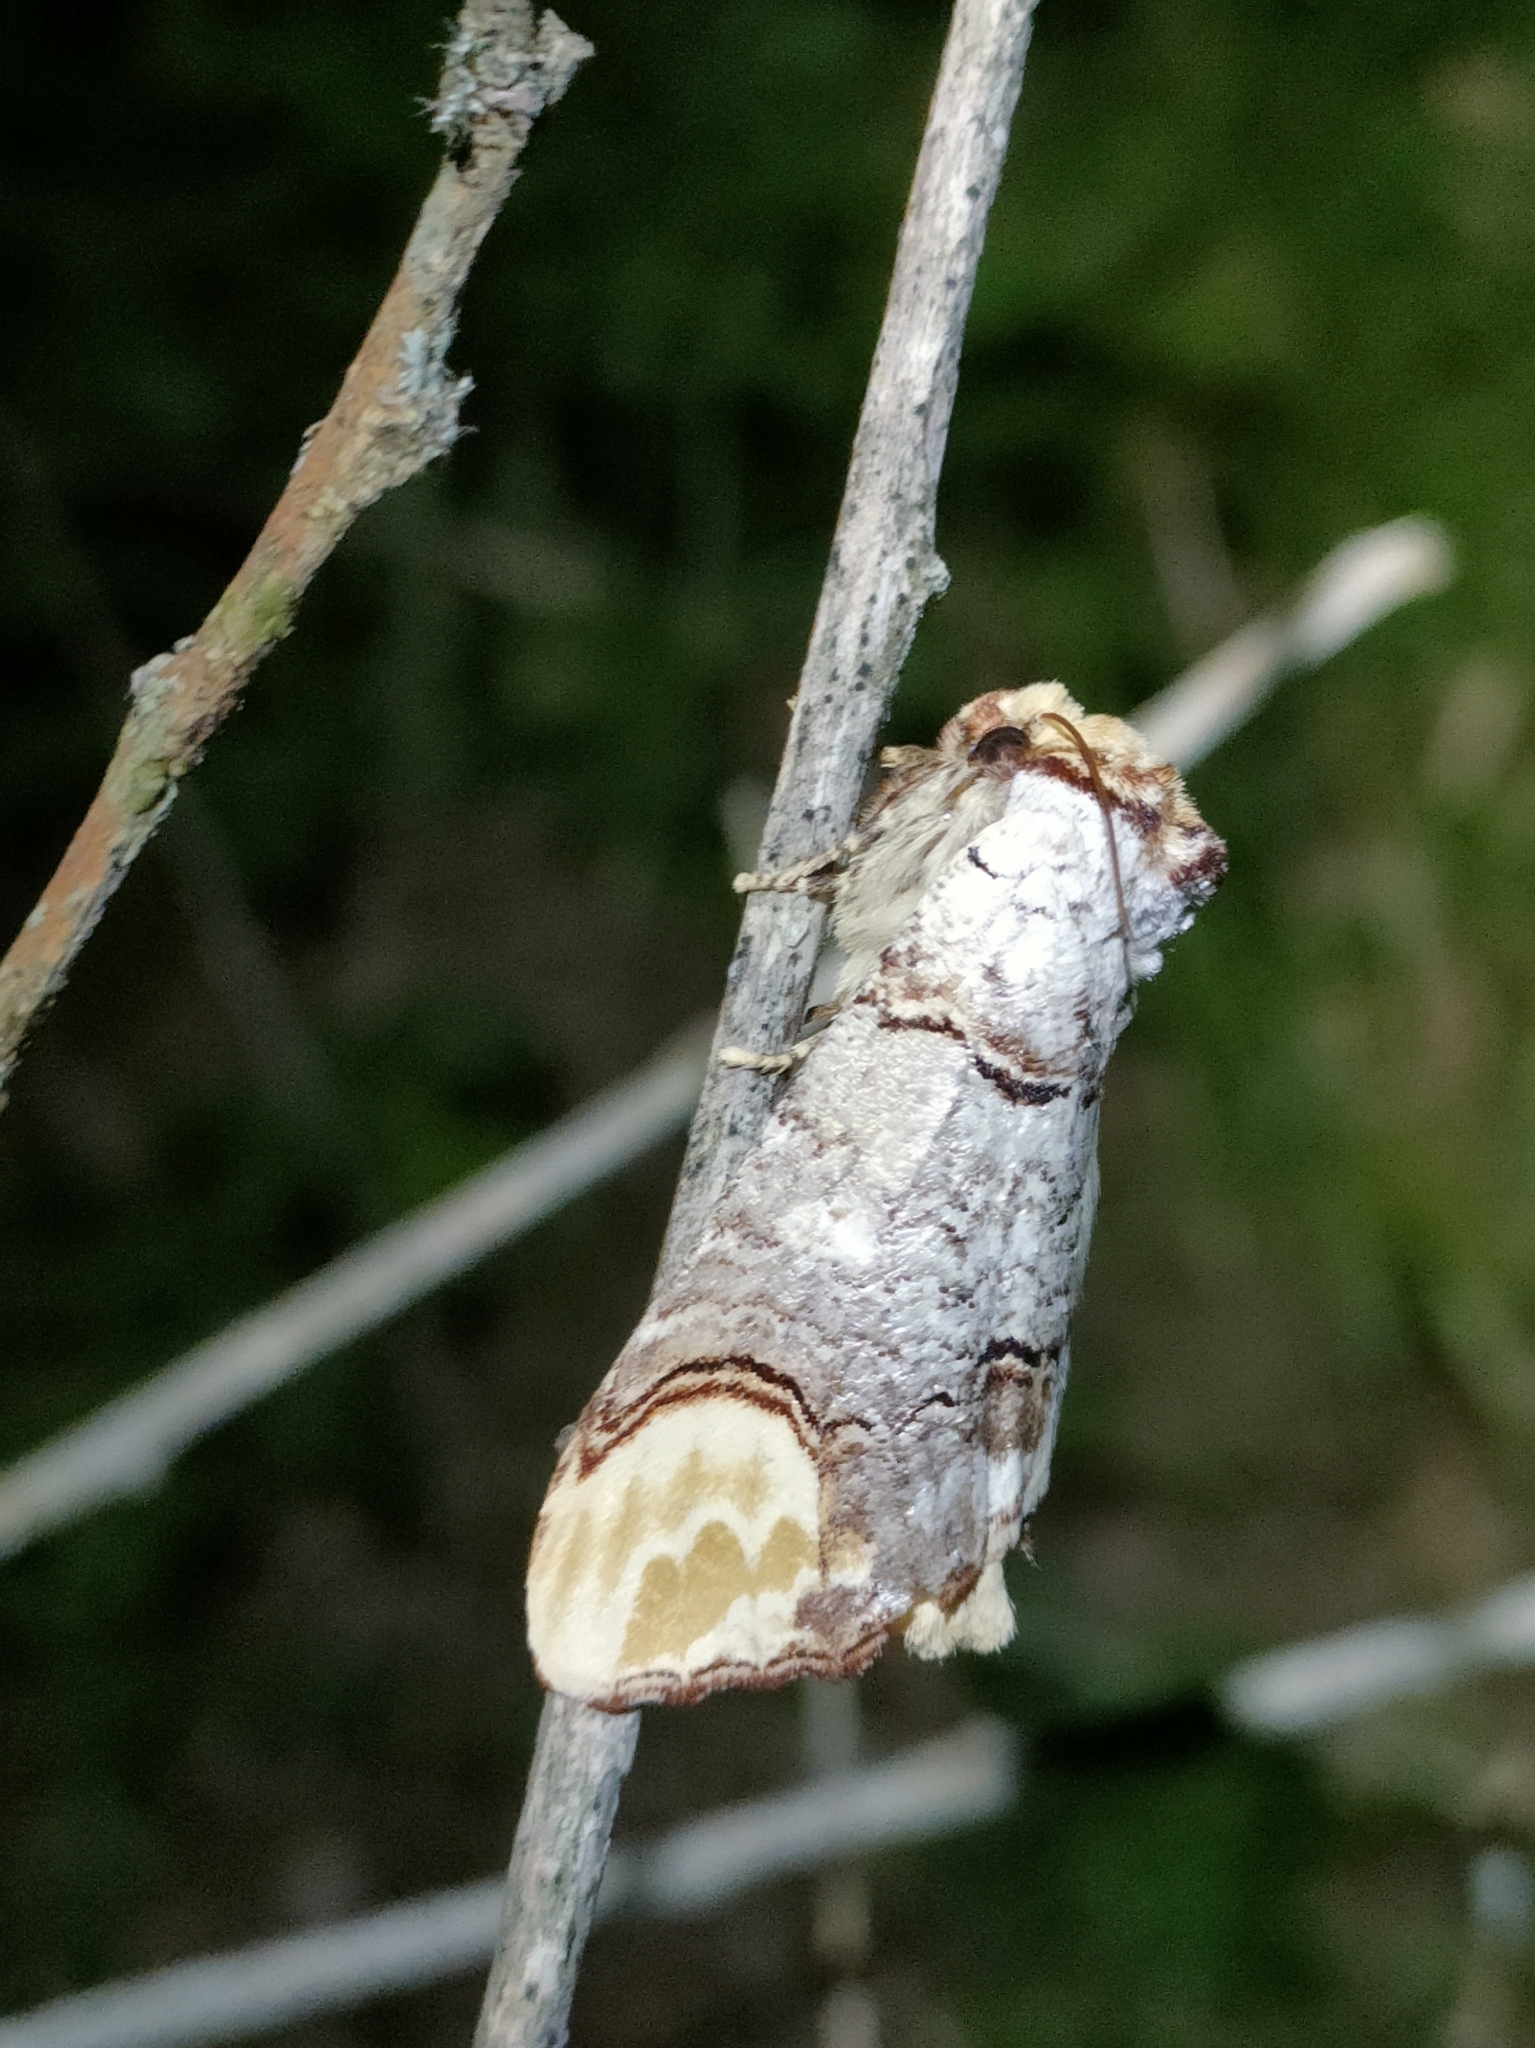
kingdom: Animalia
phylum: Arthropoda
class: Insecta
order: Lepidoptera
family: Notodontidae
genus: Phalera
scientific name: Phalera bucephala
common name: Buff-tip
